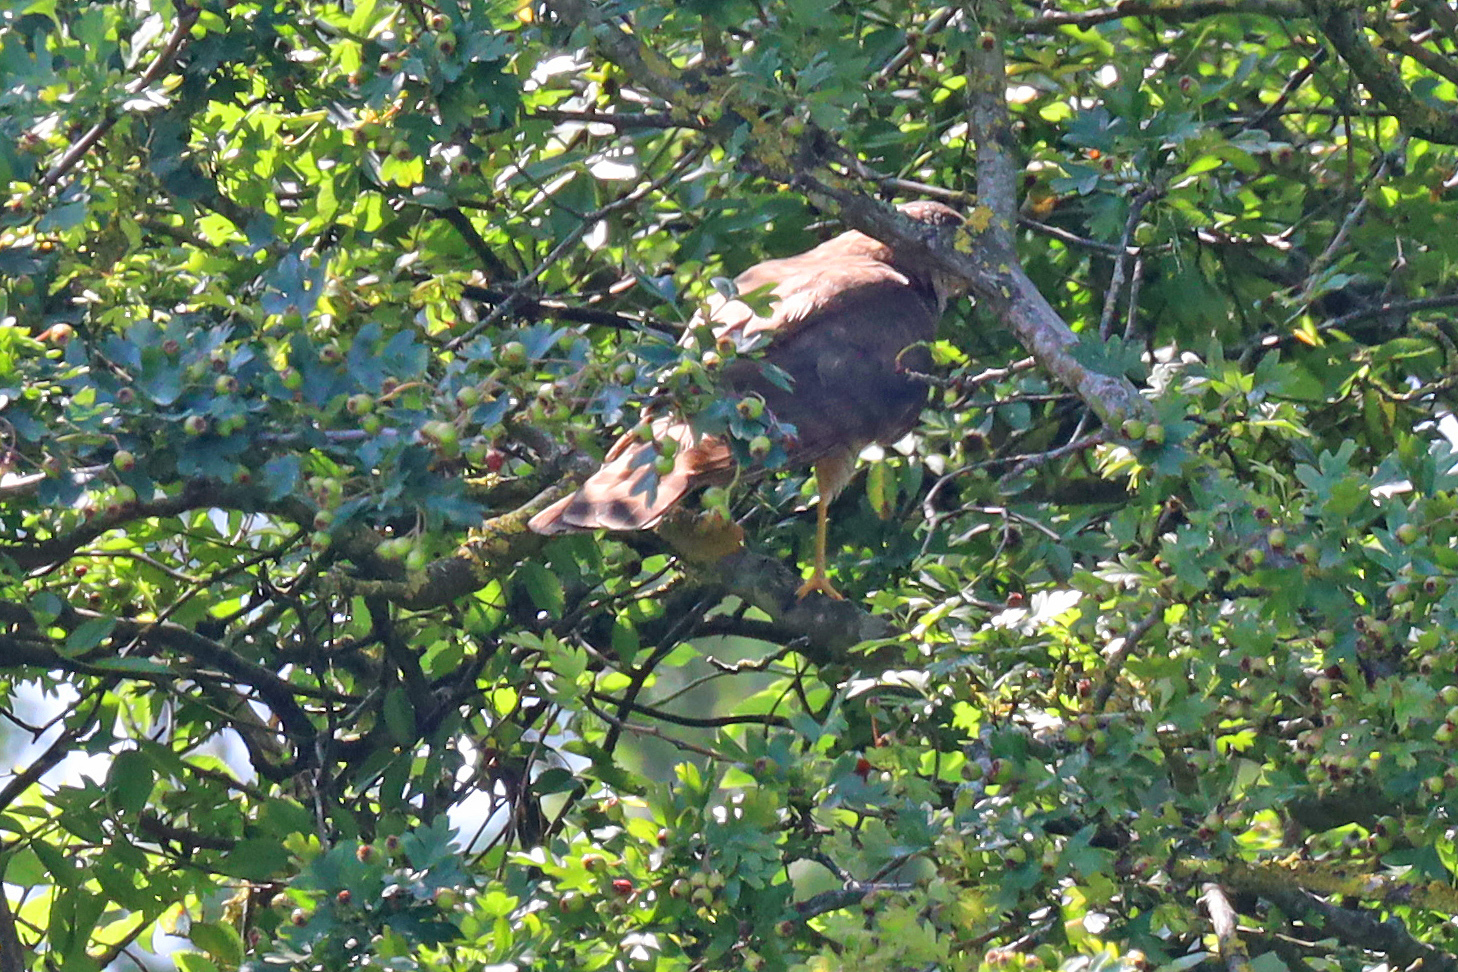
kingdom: Animalia
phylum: Chordata
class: Aves
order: Accipitriformes
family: Accipitridae
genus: Accipiter
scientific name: Accipiter nisus
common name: Eurasian sparrowhawk
